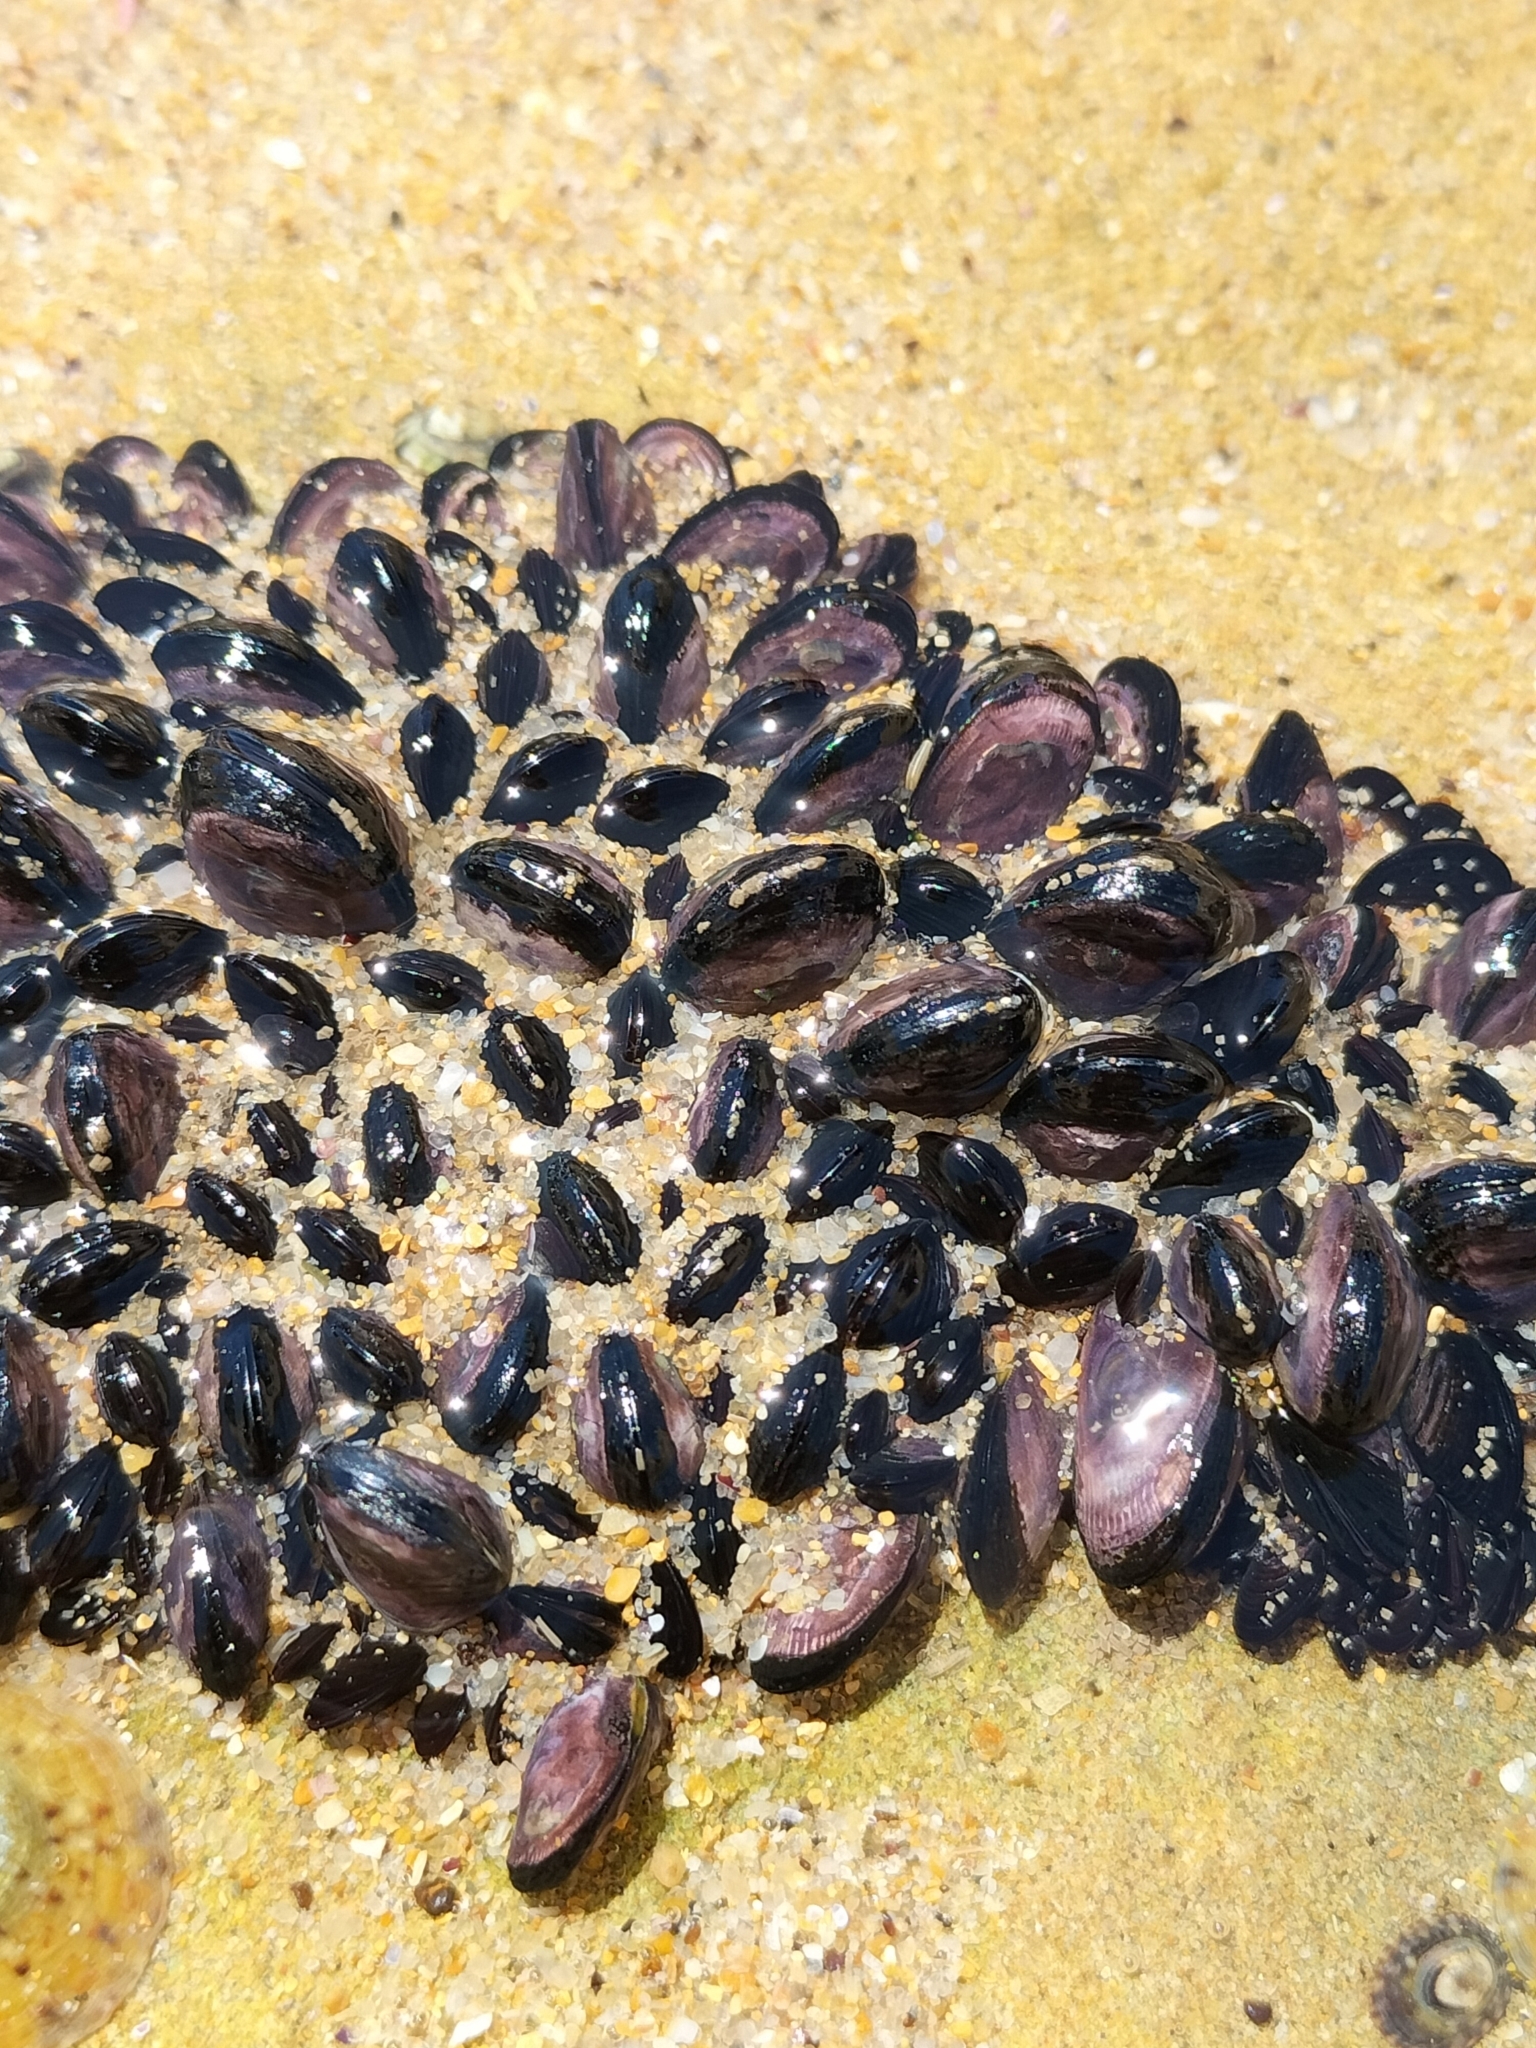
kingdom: Animalia
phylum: Mollusca
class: Bivalvia
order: Mytilida
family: Mytilidae
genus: Brachidontes
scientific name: Brachidontes rostratus
